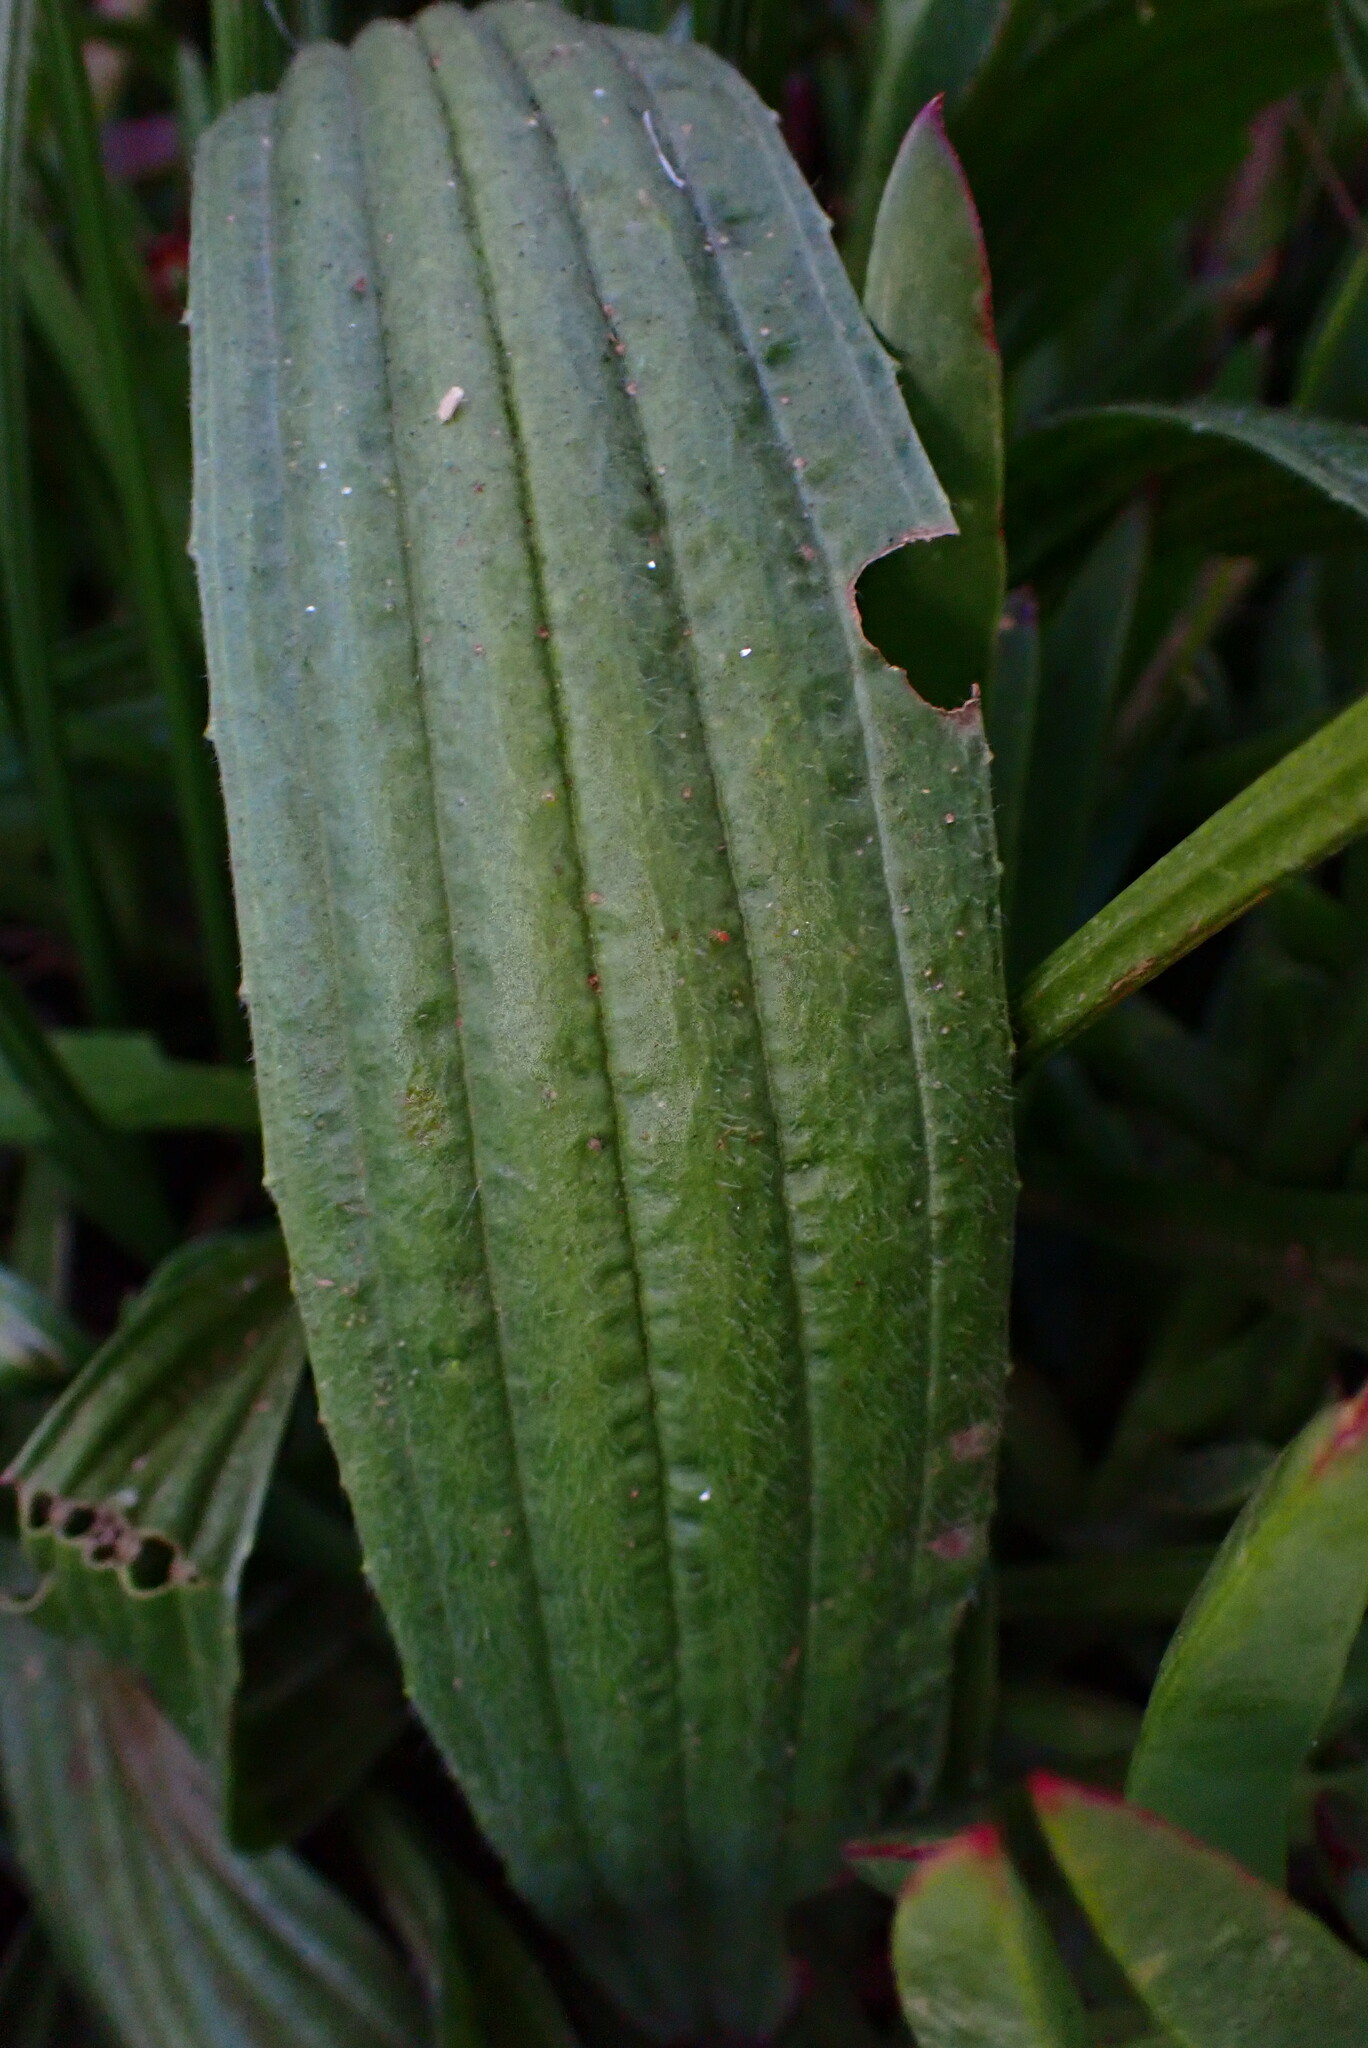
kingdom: Plantae
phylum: Tracheophyta
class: Magnoliopsida
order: Lamiales
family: Plantaginaceae
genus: Plantago
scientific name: Plantago lanceolata
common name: Ribwort plantain
